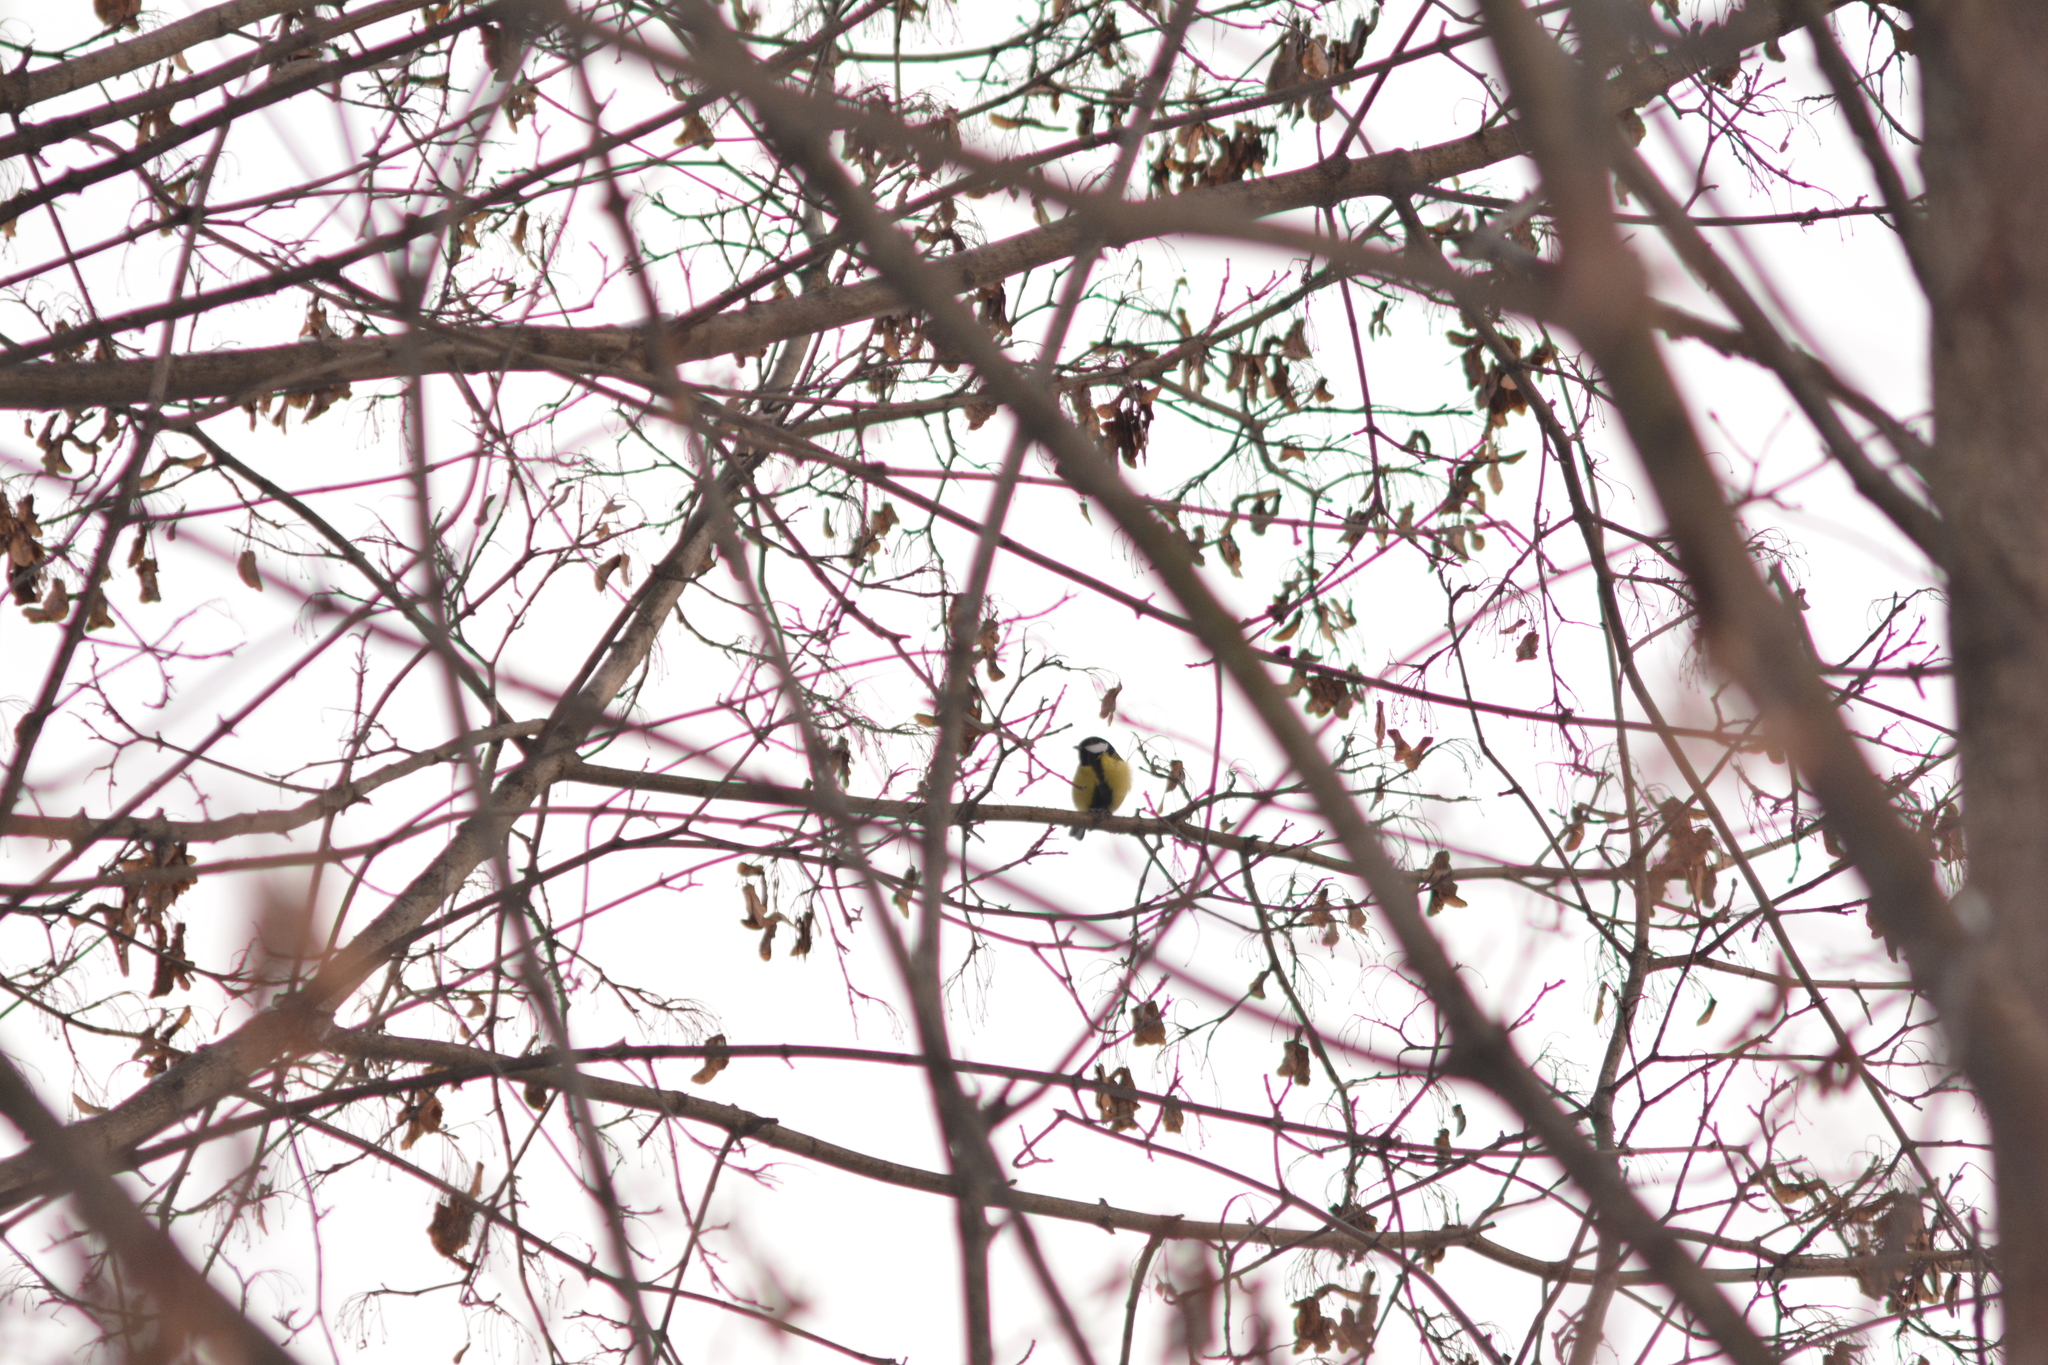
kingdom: Animalia
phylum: Chordata
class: Aves
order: Passeriformes
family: Paridae
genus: Parus
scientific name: Parus major
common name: Great tit
